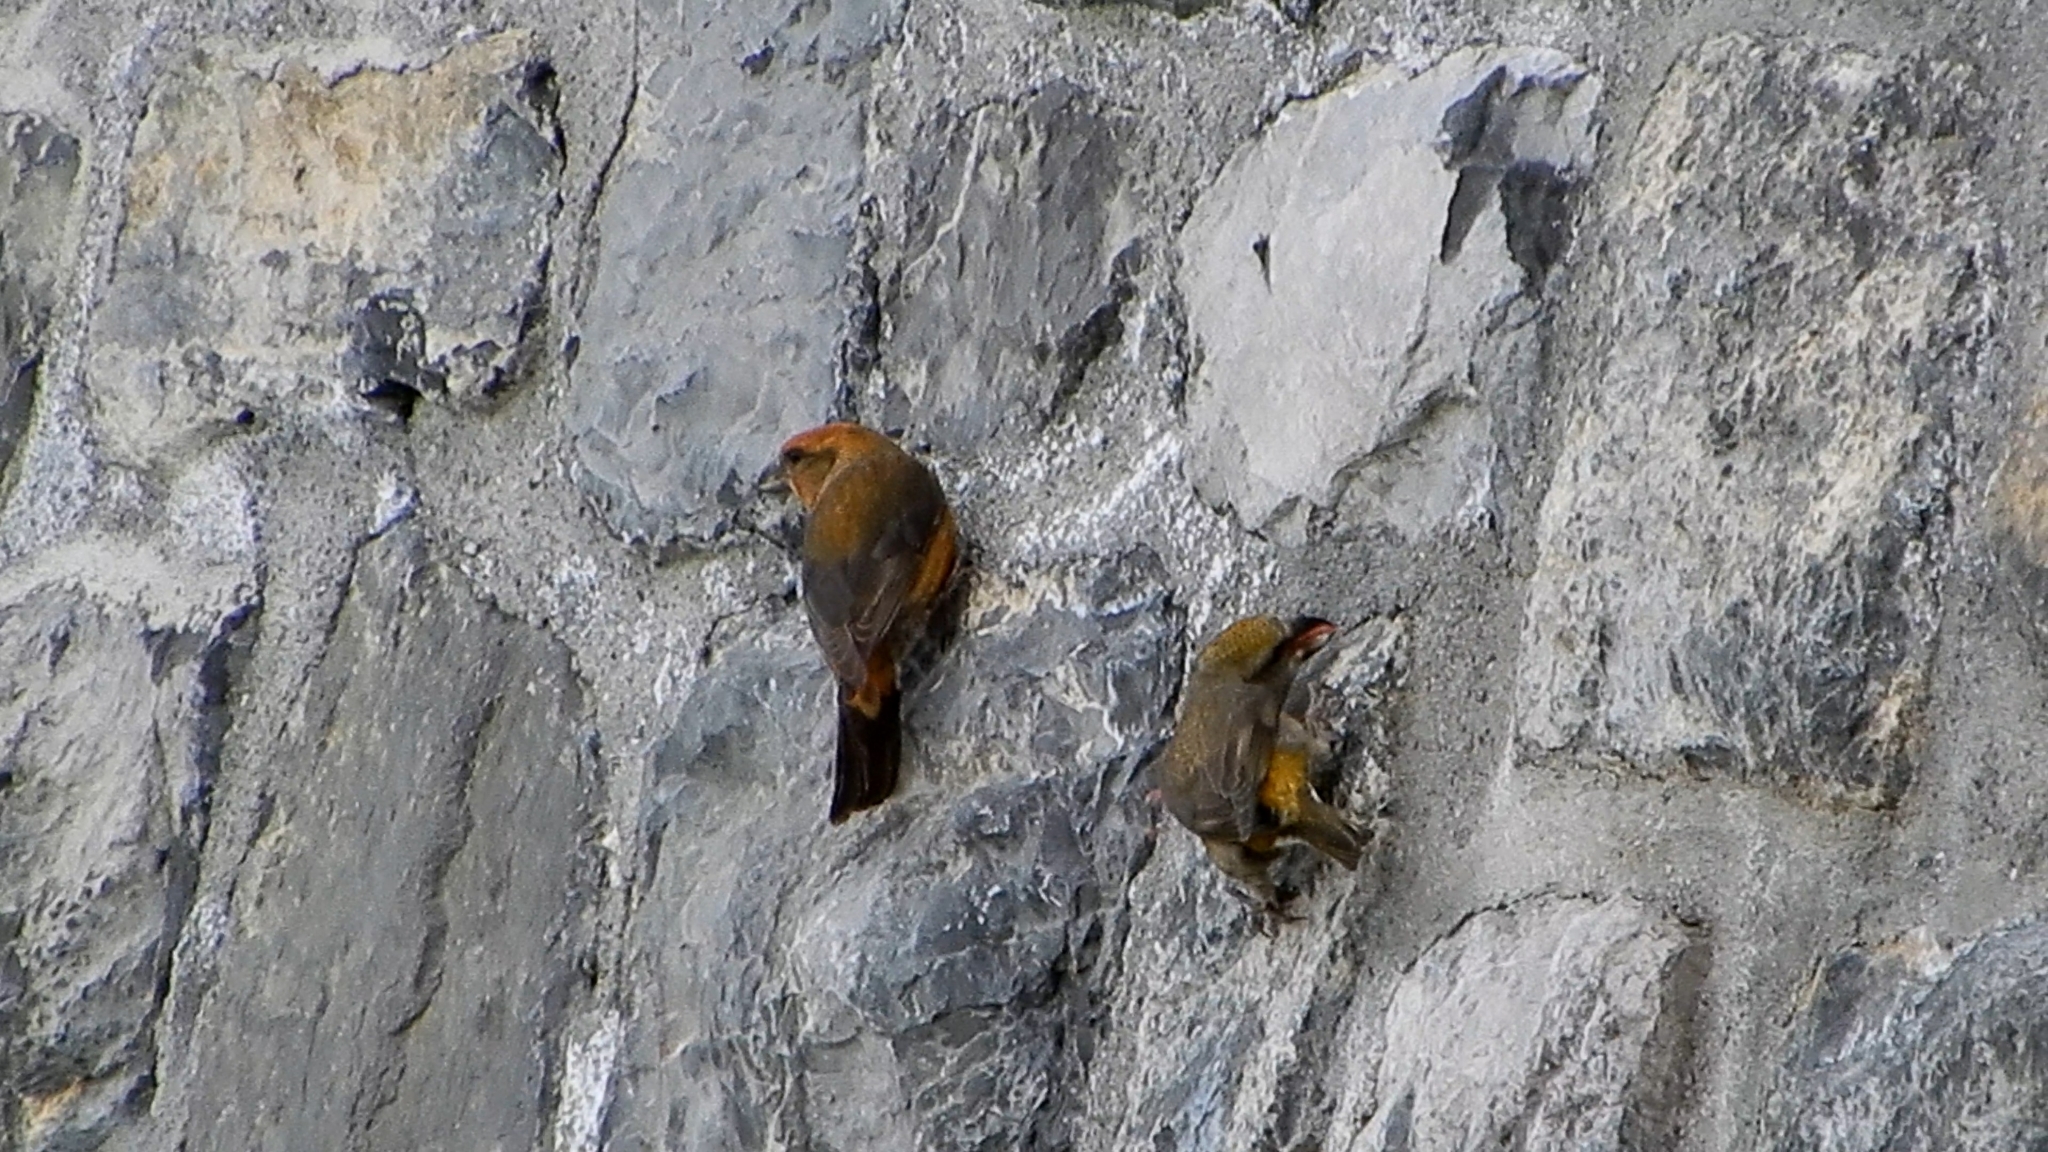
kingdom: Animalia
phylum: Chordata
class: Aves
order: Passeriformes
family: Fringillidae
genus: Loxia
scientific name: Loxia curvirostra
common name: Red crossbill
